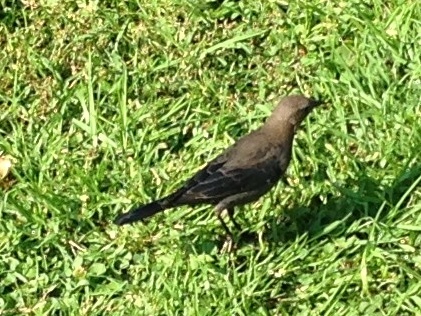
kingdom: Animalia
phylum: Chordata
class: Aves
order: Passeriformes
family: Icteridae
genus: Euphagus
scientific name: Euphagus cyanocephalus
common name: Brewer's blackbird
